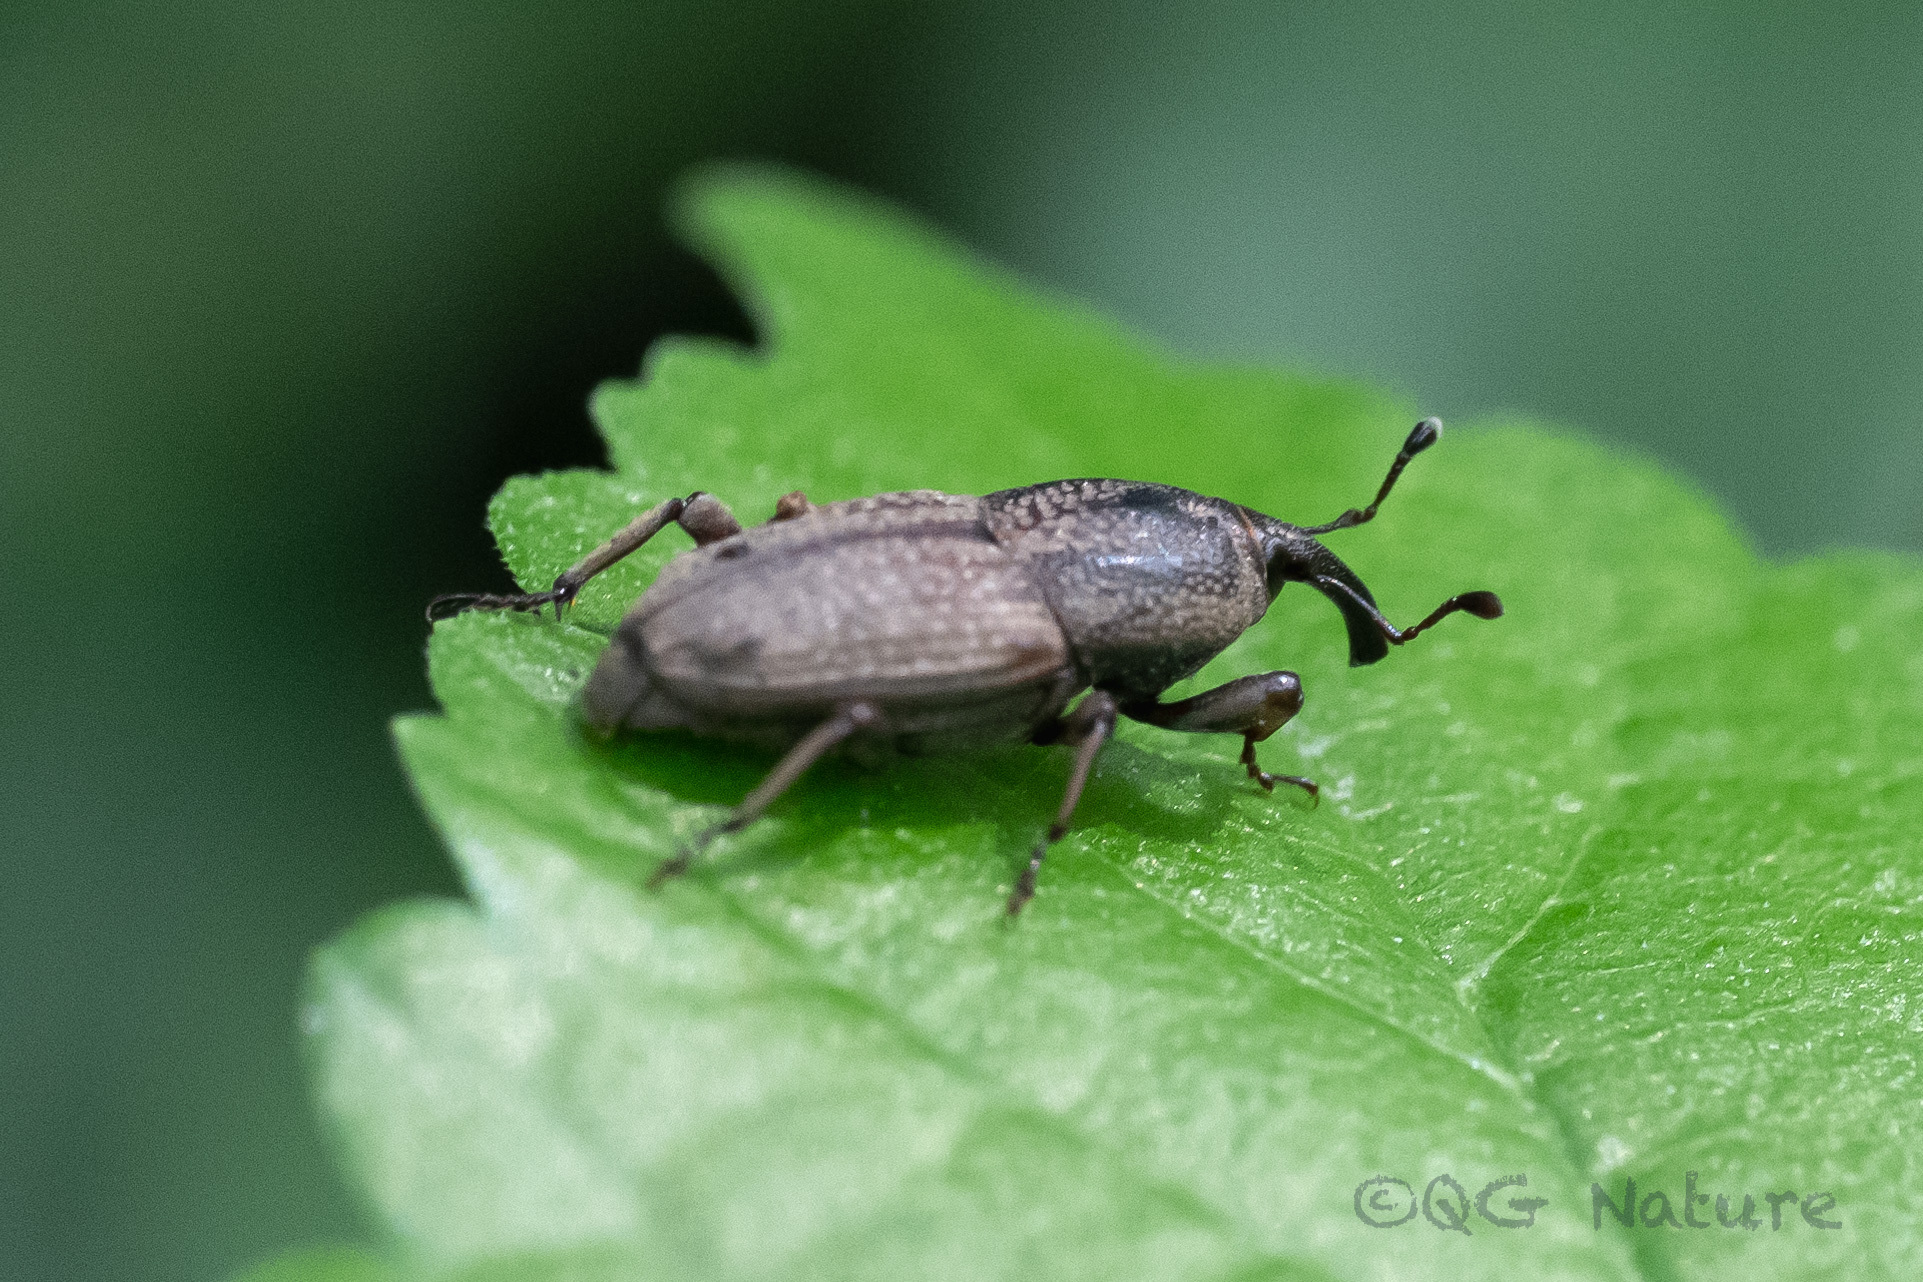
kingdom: Animalia
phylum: Arthropoda
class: Insecta
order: Coleoptera
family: Dryophthoridae
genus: Sphenophorus
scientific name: Sphenophorus venatus
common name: Hunting billbug
